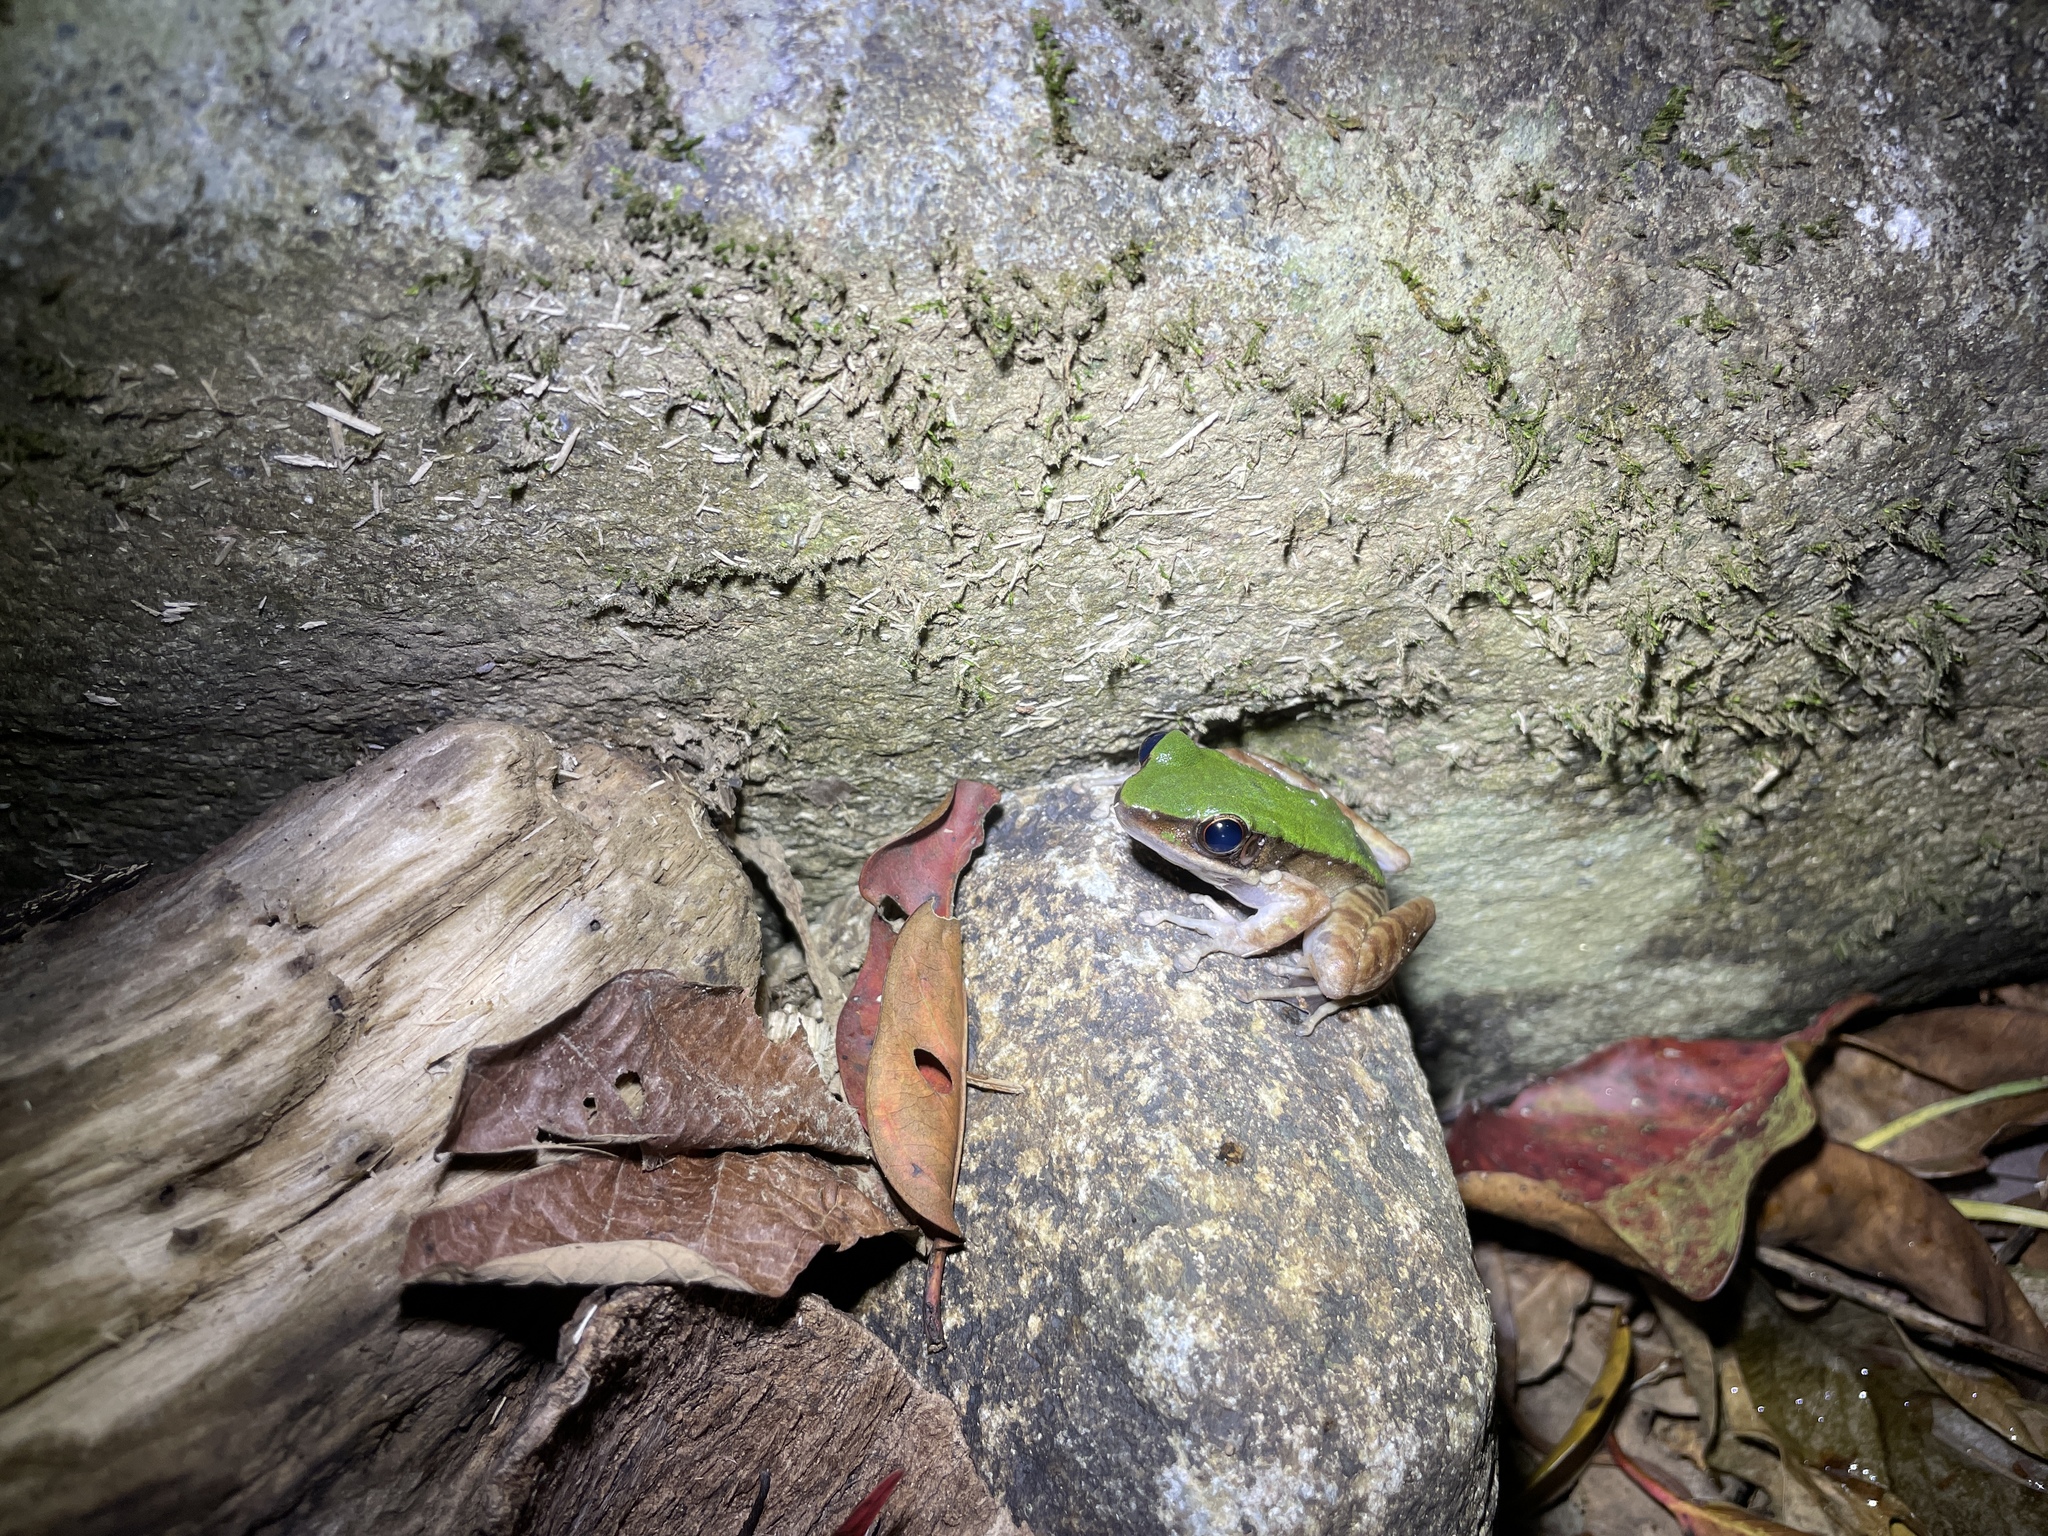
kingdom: Animalia
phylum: Chordata
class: Amphibia
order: Anura
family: Ranidae
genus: Odorrana
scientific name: Odorrana graminea
